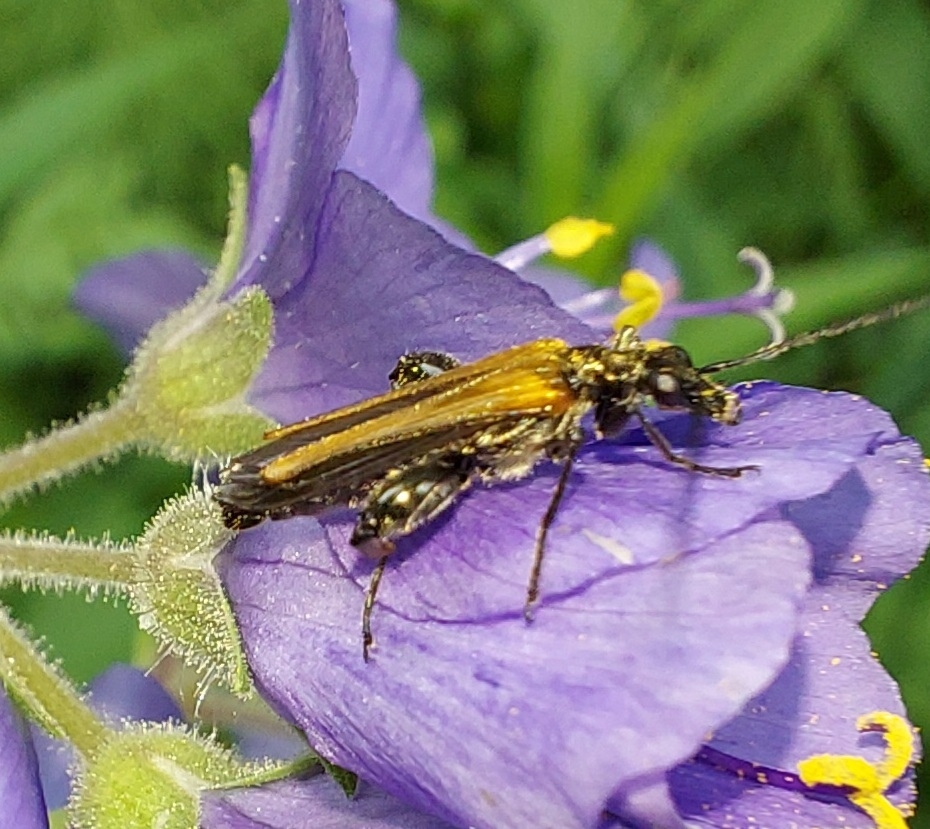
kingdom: Animalia
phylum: Arthropoda
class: Insecta
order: Coleoptera
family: Oedemeridae
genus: Oedemera
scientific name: Oedemera femorata
